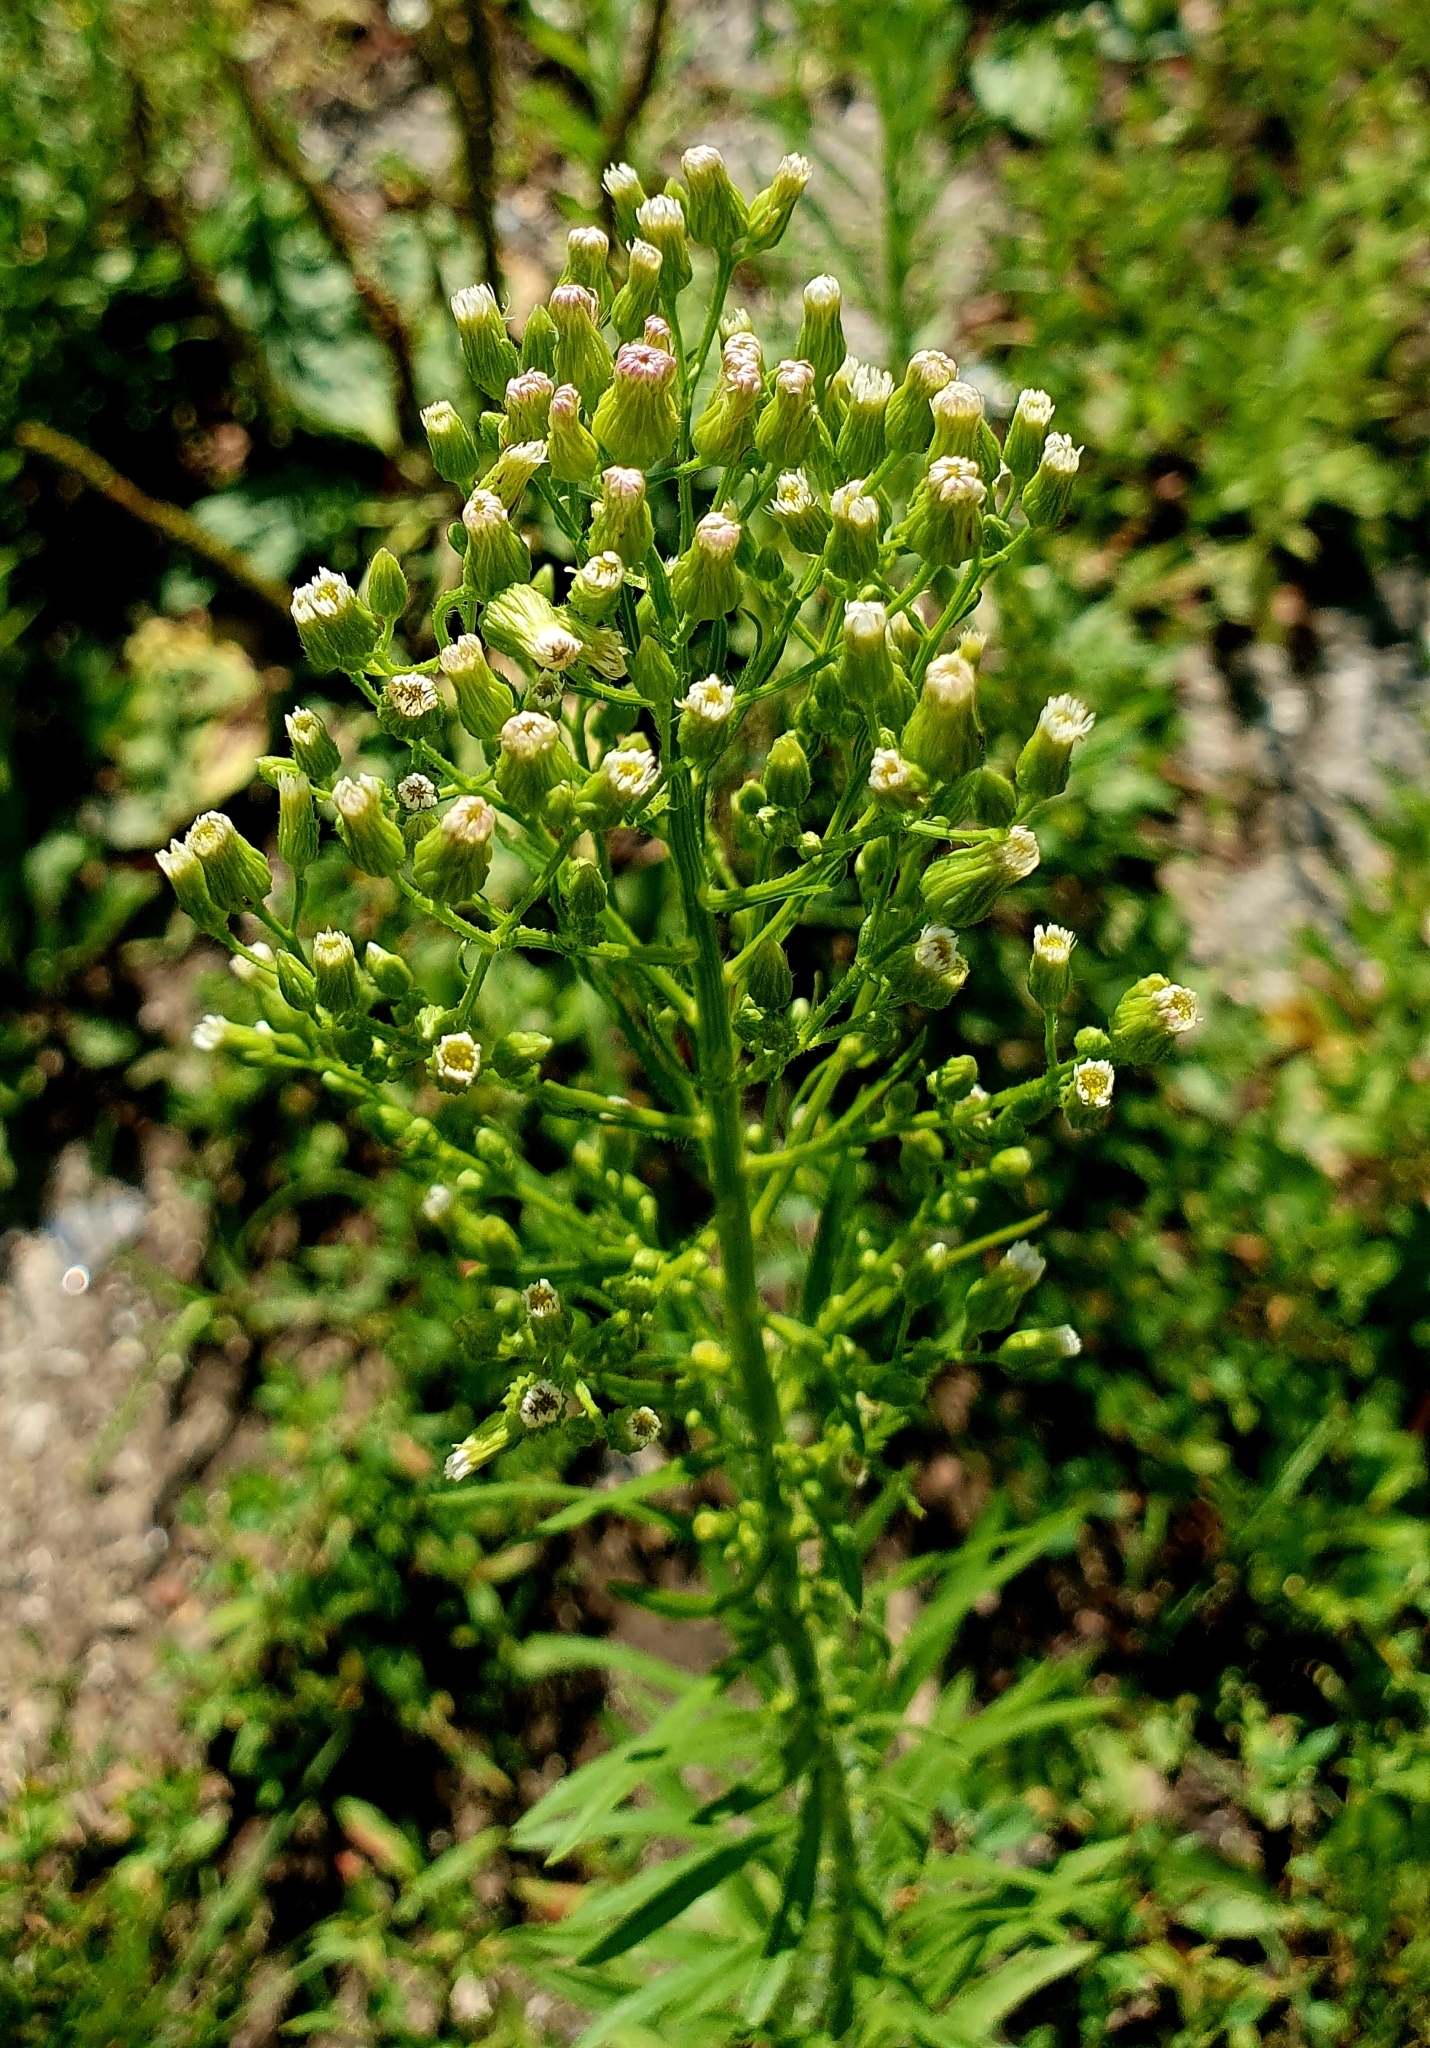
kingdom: Plantae
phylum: Tracheophyta
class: Magnoliopsida
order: Asterales
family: Asteraceae
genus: Erigeron
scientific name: Erigeron canadensis
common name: Canadian fleabane
